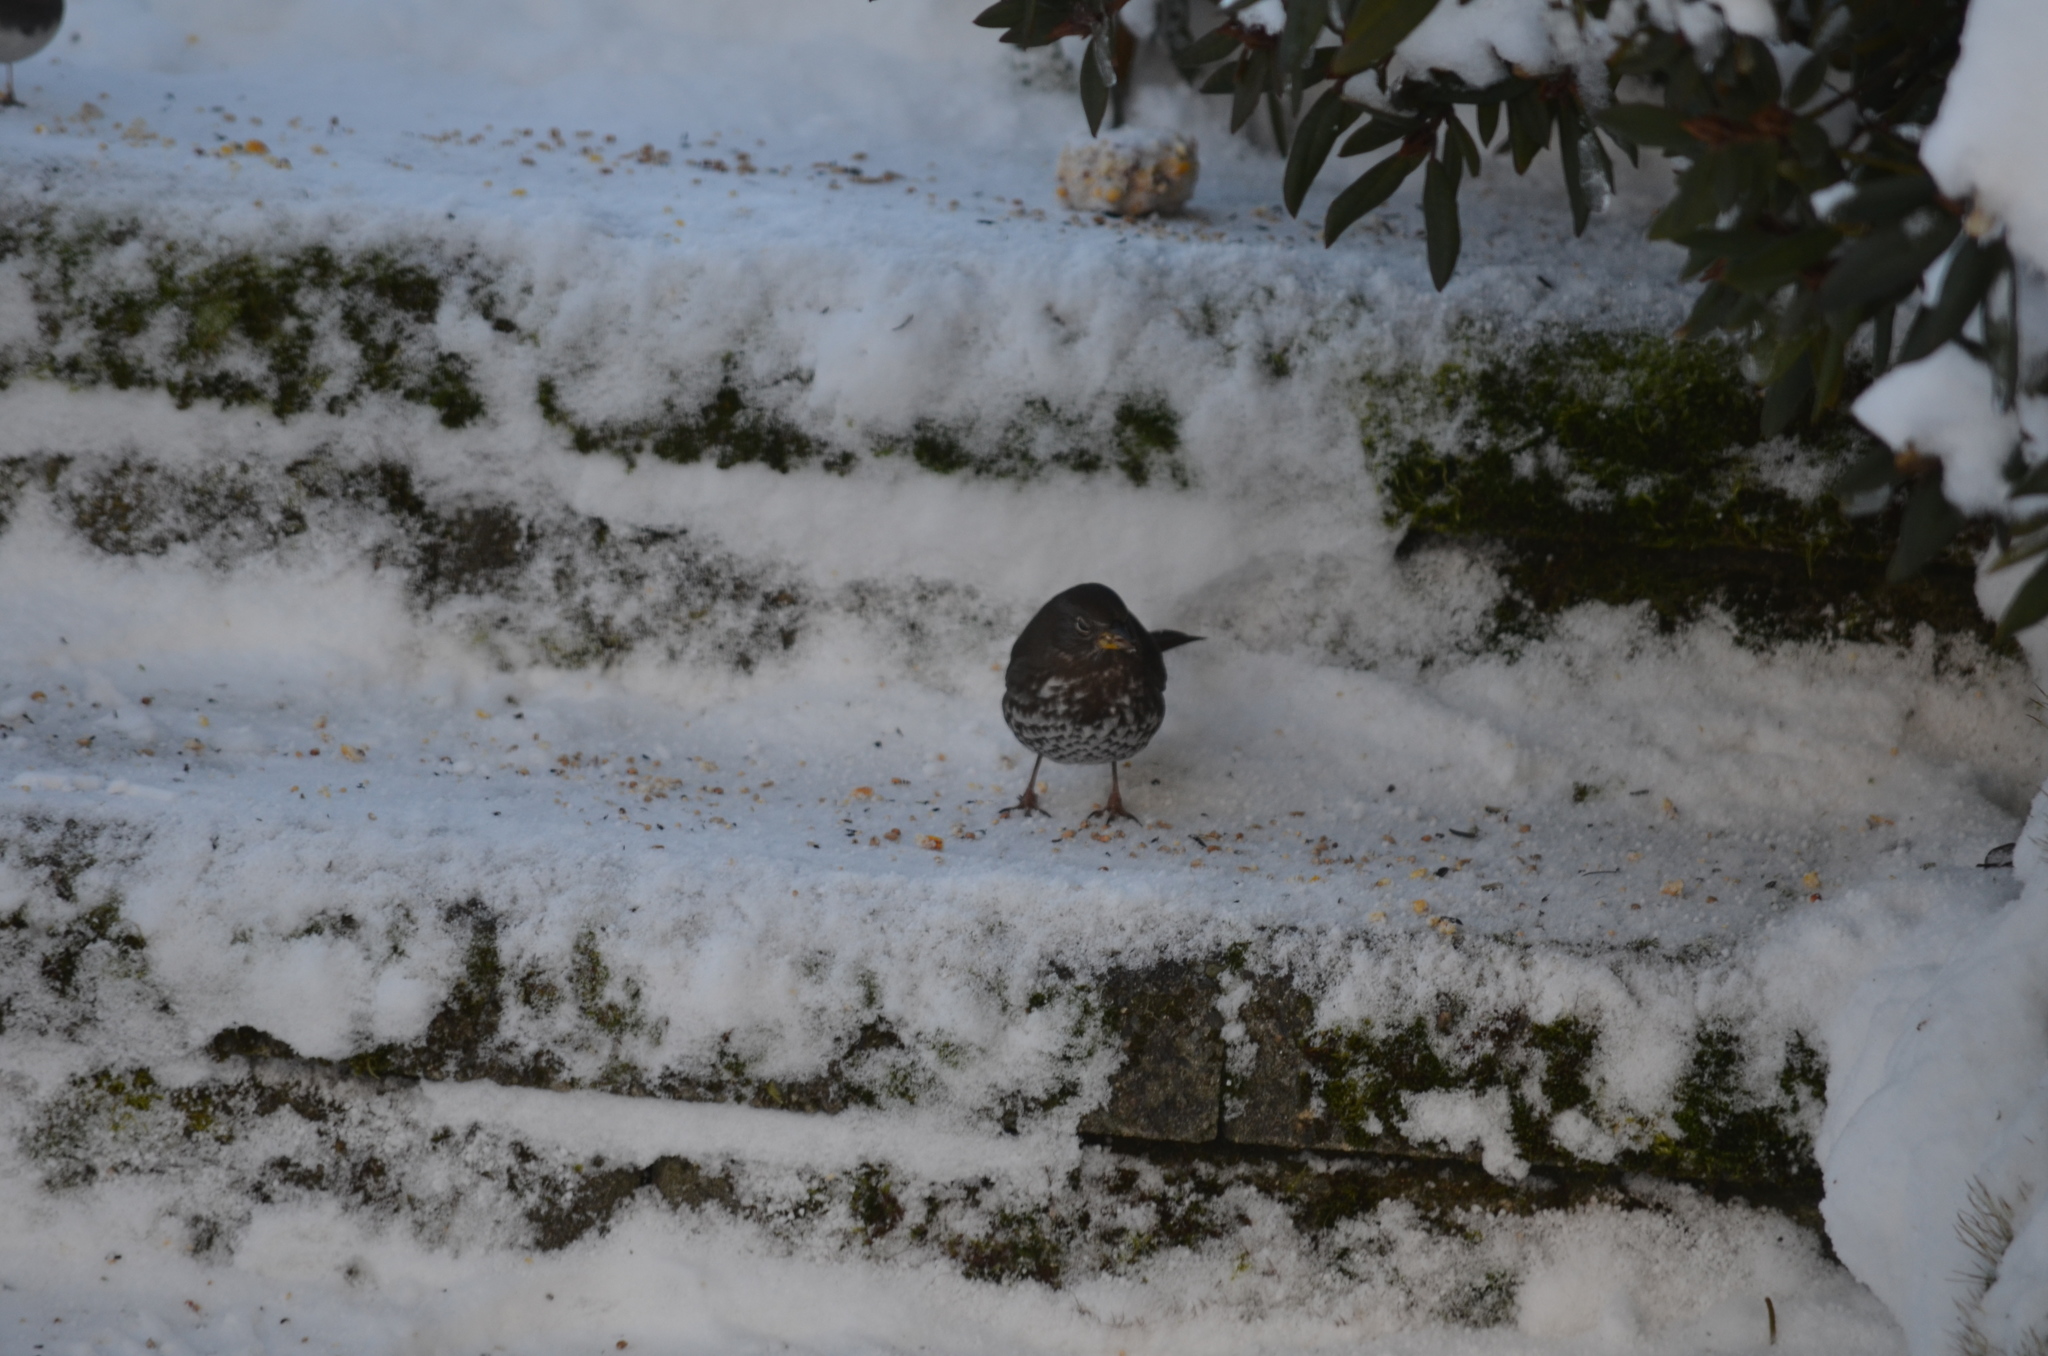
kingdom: Animalia
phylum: Chordata
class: Aves
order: Passeriformes
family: Passerellidae
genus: Passerella
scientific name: Passerella iliaca
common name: Fox sparrow
